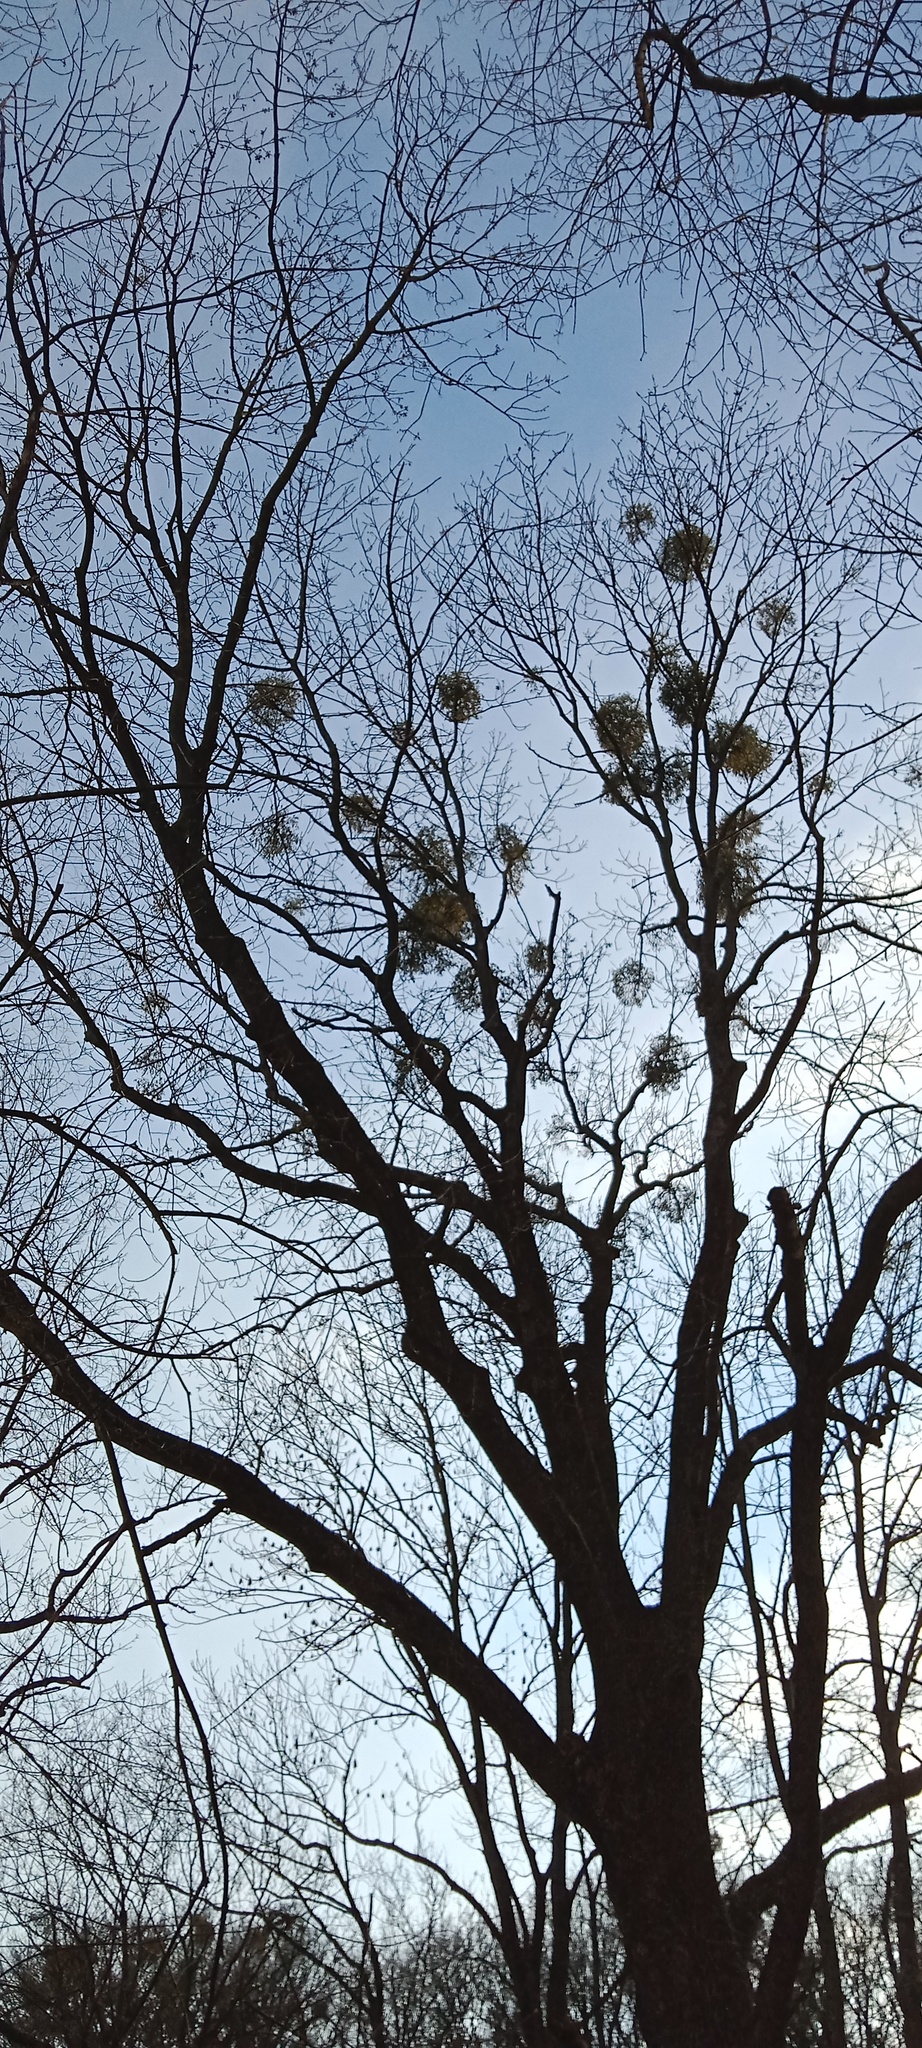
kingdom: Plantae
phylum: Tracheophyta
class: Magnoliopsida
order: Santalales
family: Viscaceae
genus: Viscum
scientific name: Viscum album
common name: Mistletoe
